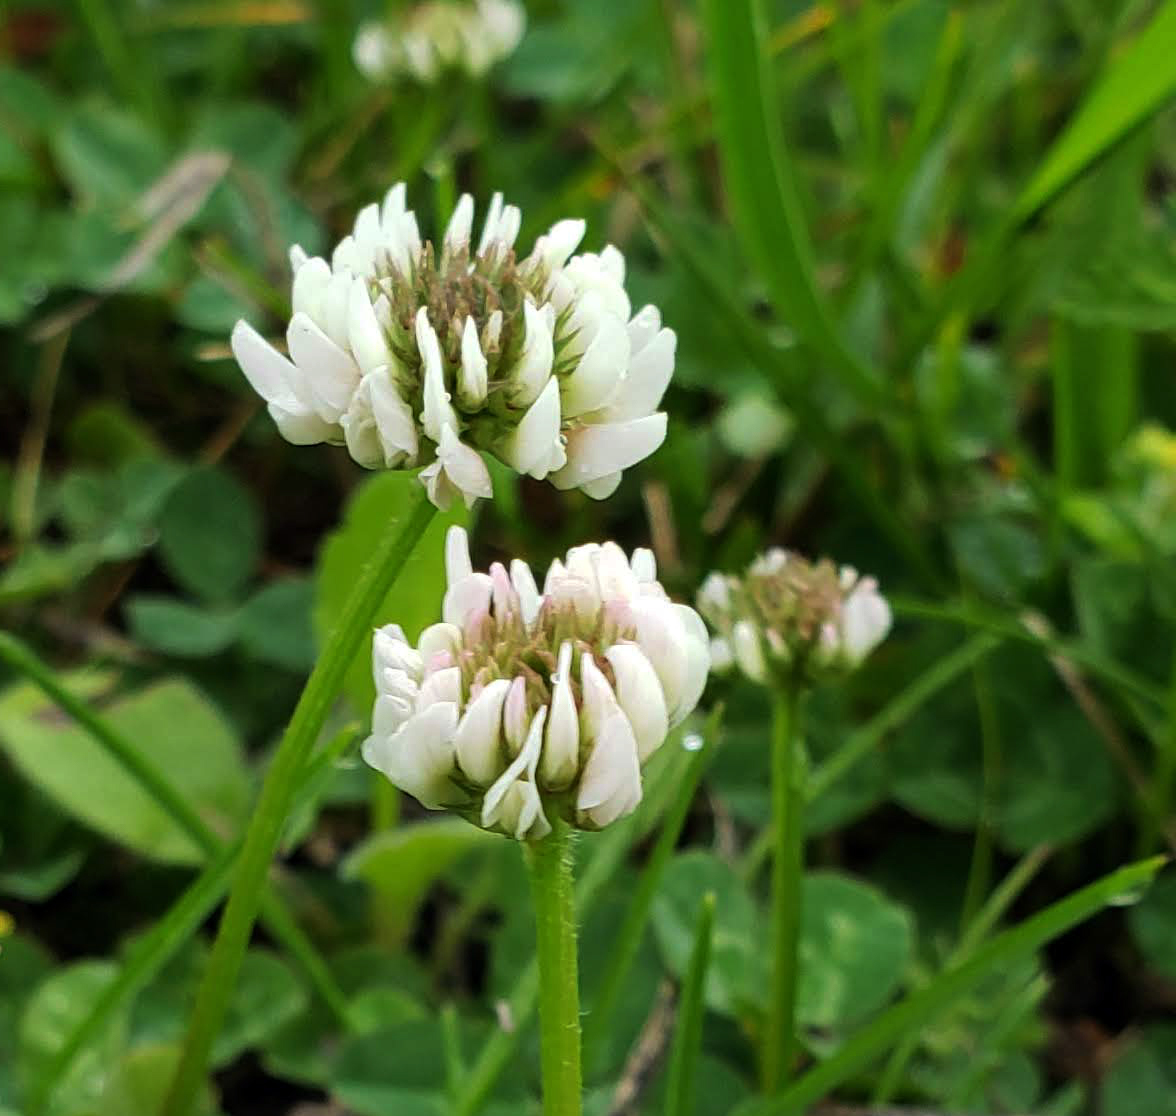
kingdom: Plantae
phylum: Tracheophyta
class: Magnoliopsida
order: Fabales
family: Fabaceae
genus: Trifolium
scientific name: Trifolium repens
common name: White clover
